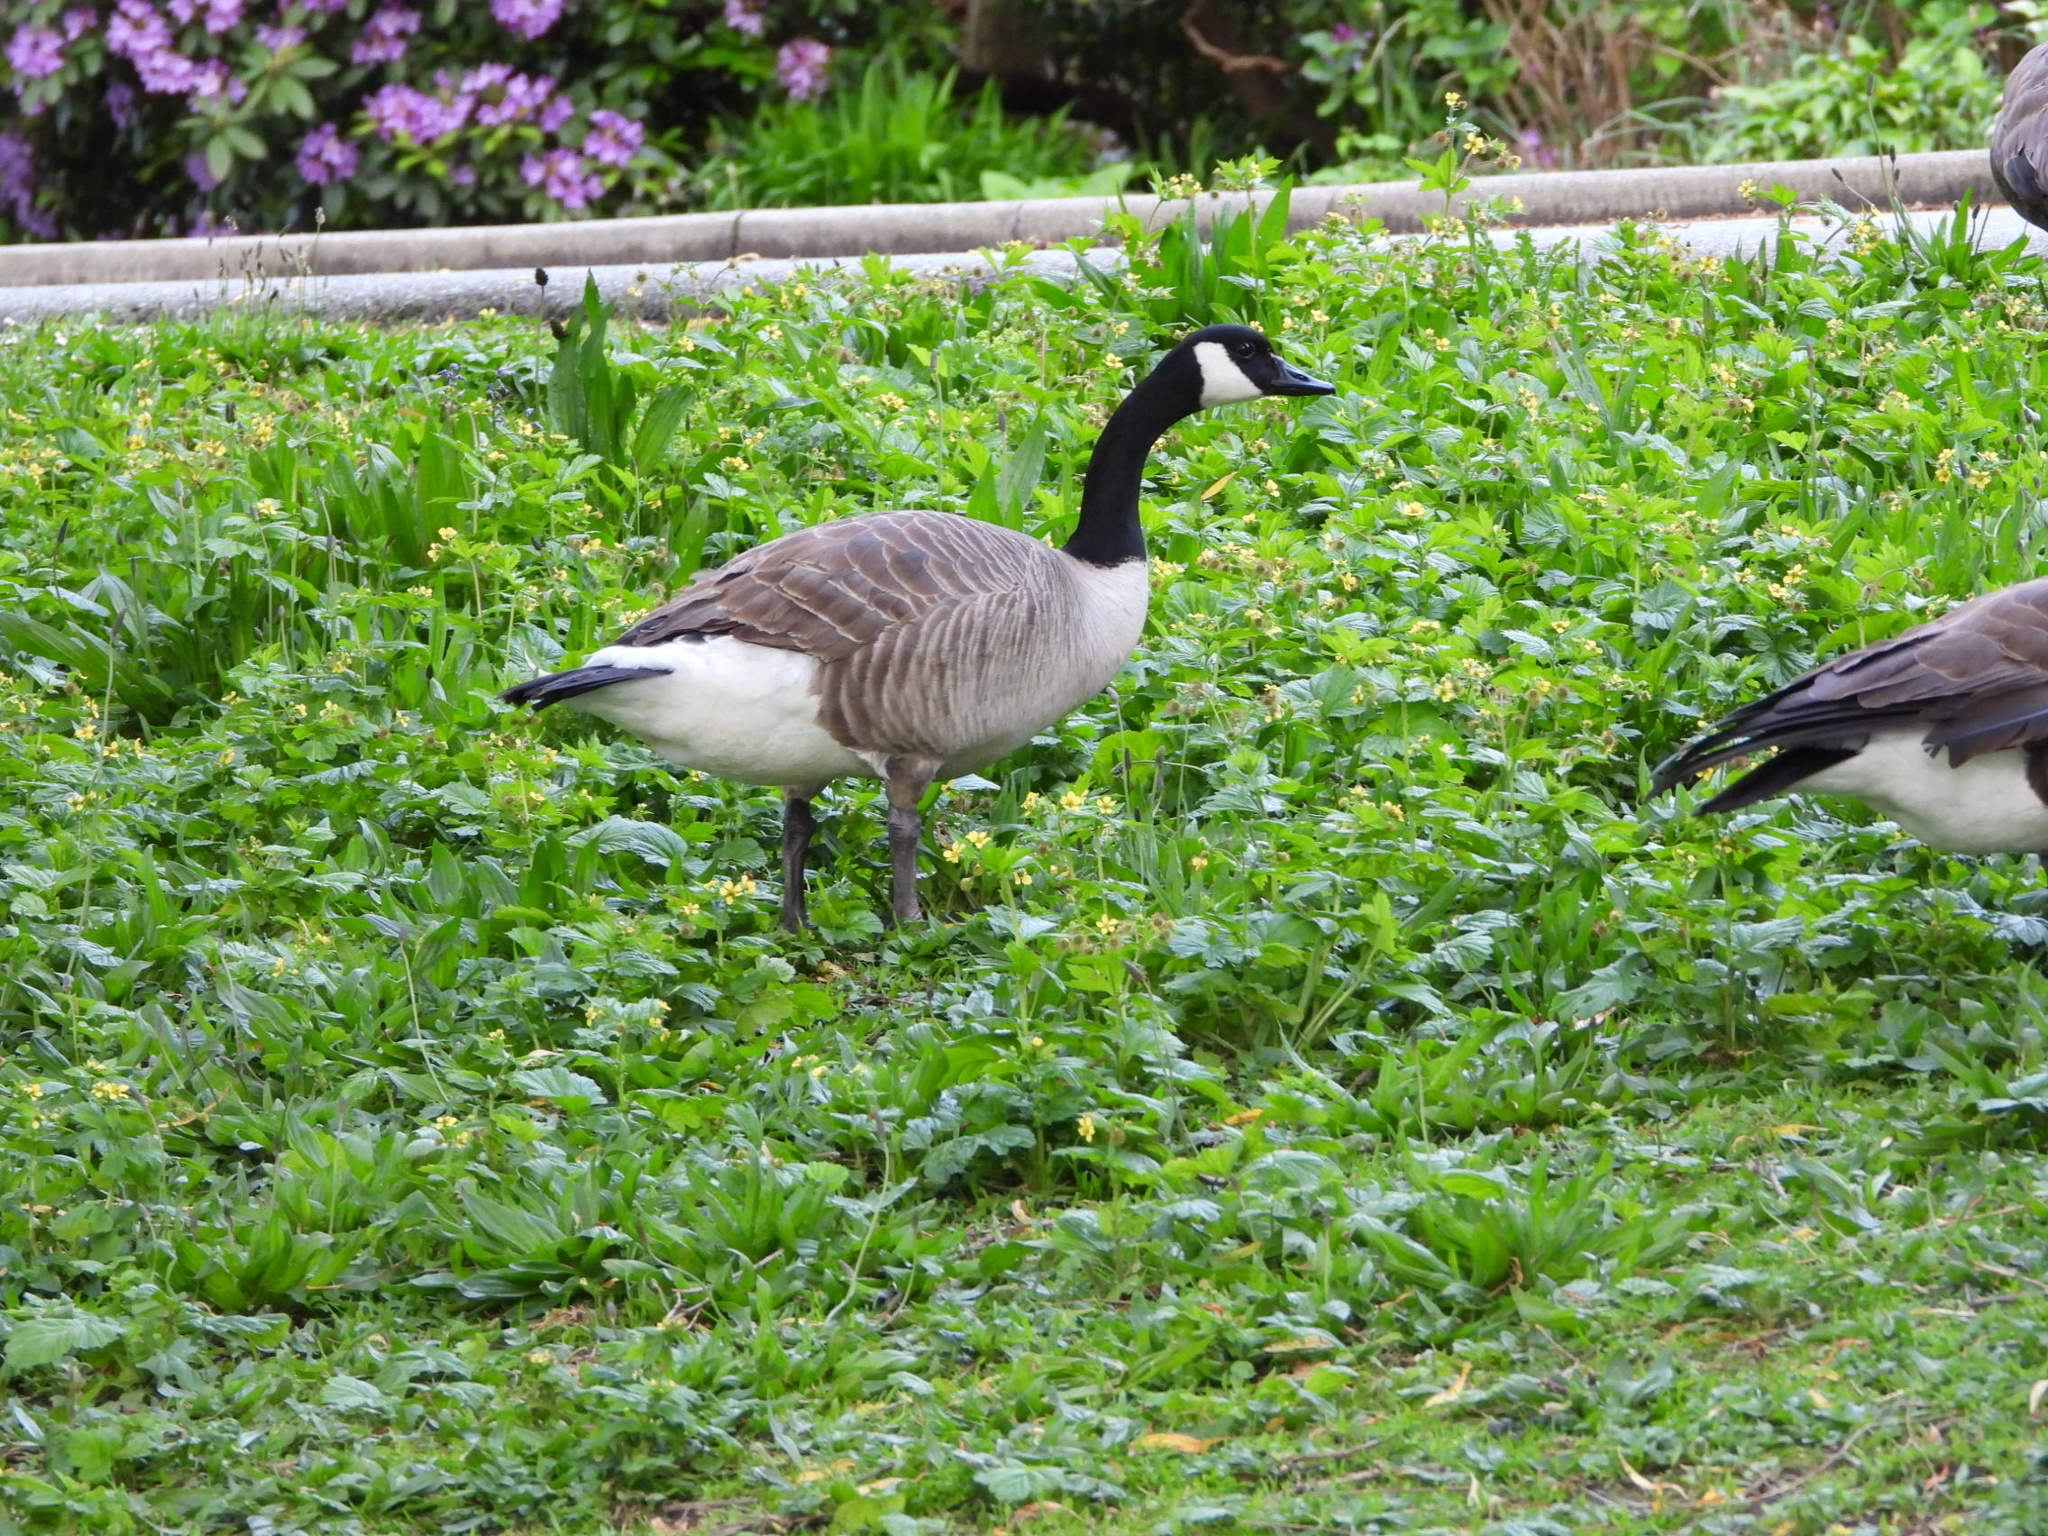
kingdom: Animalia
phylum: Chordata
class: Aves
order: Anseriformes
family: Anatidae
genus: Branta
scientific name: Branta canadensis
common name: Canada goose
